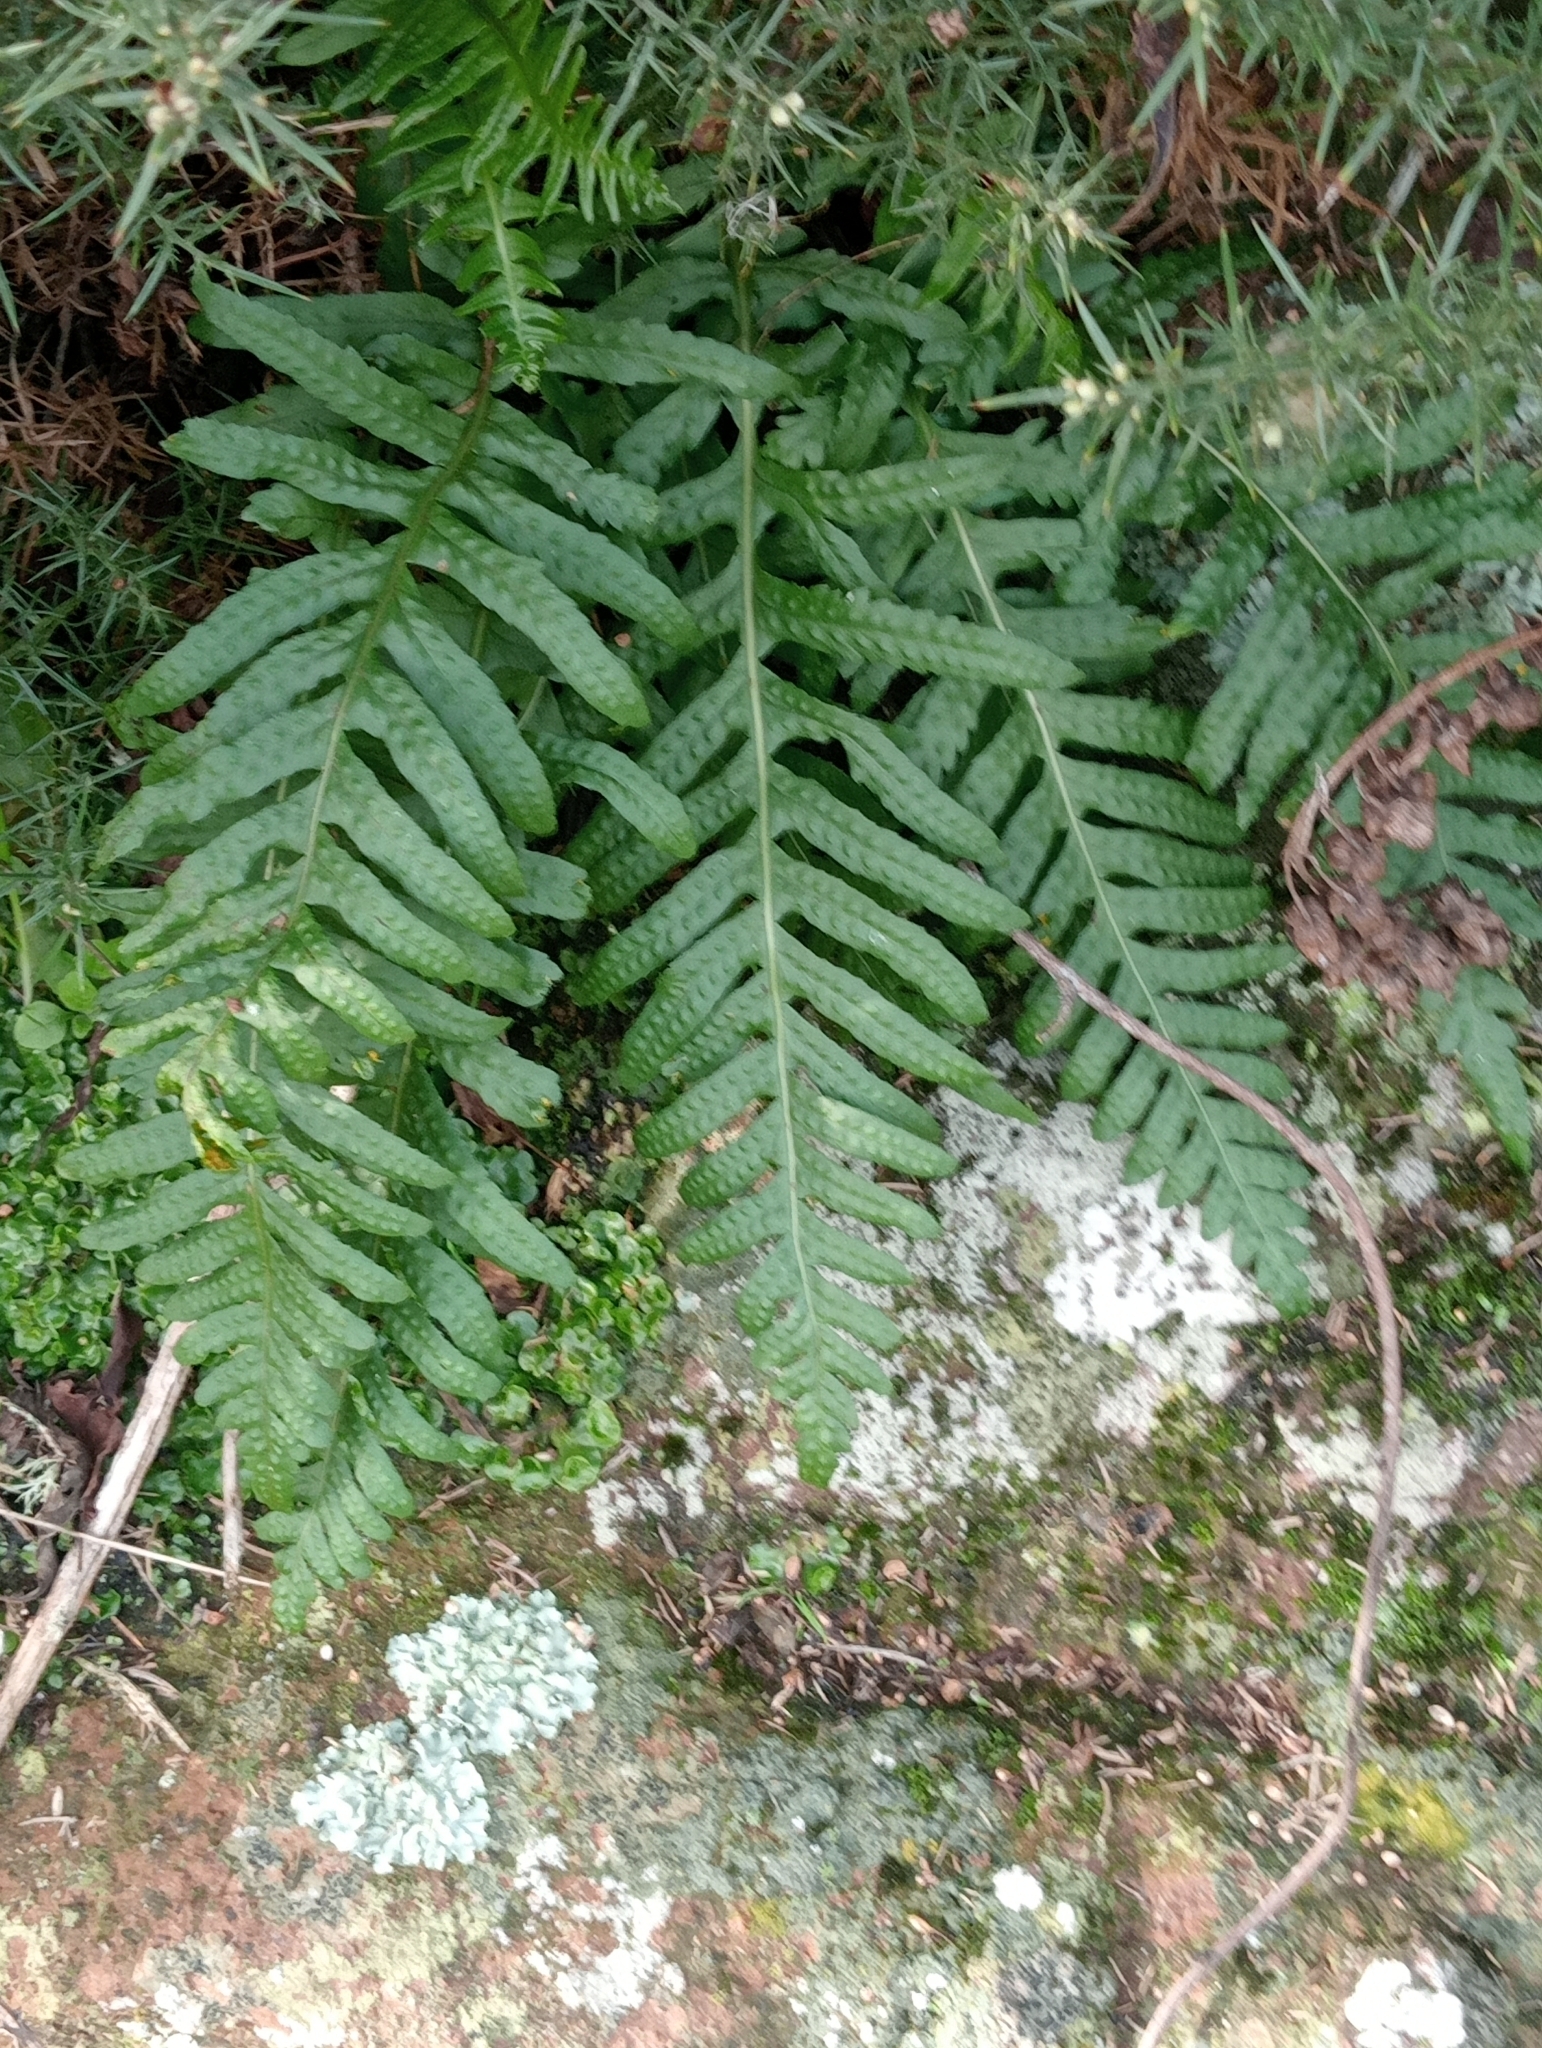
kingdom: Plantae
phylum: Tracheophyta
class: Polypodiopsida
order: Polypodiales
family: Polypodiaceae
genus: Polypodium
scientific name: Polypodium vulgare
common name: Common polypody
